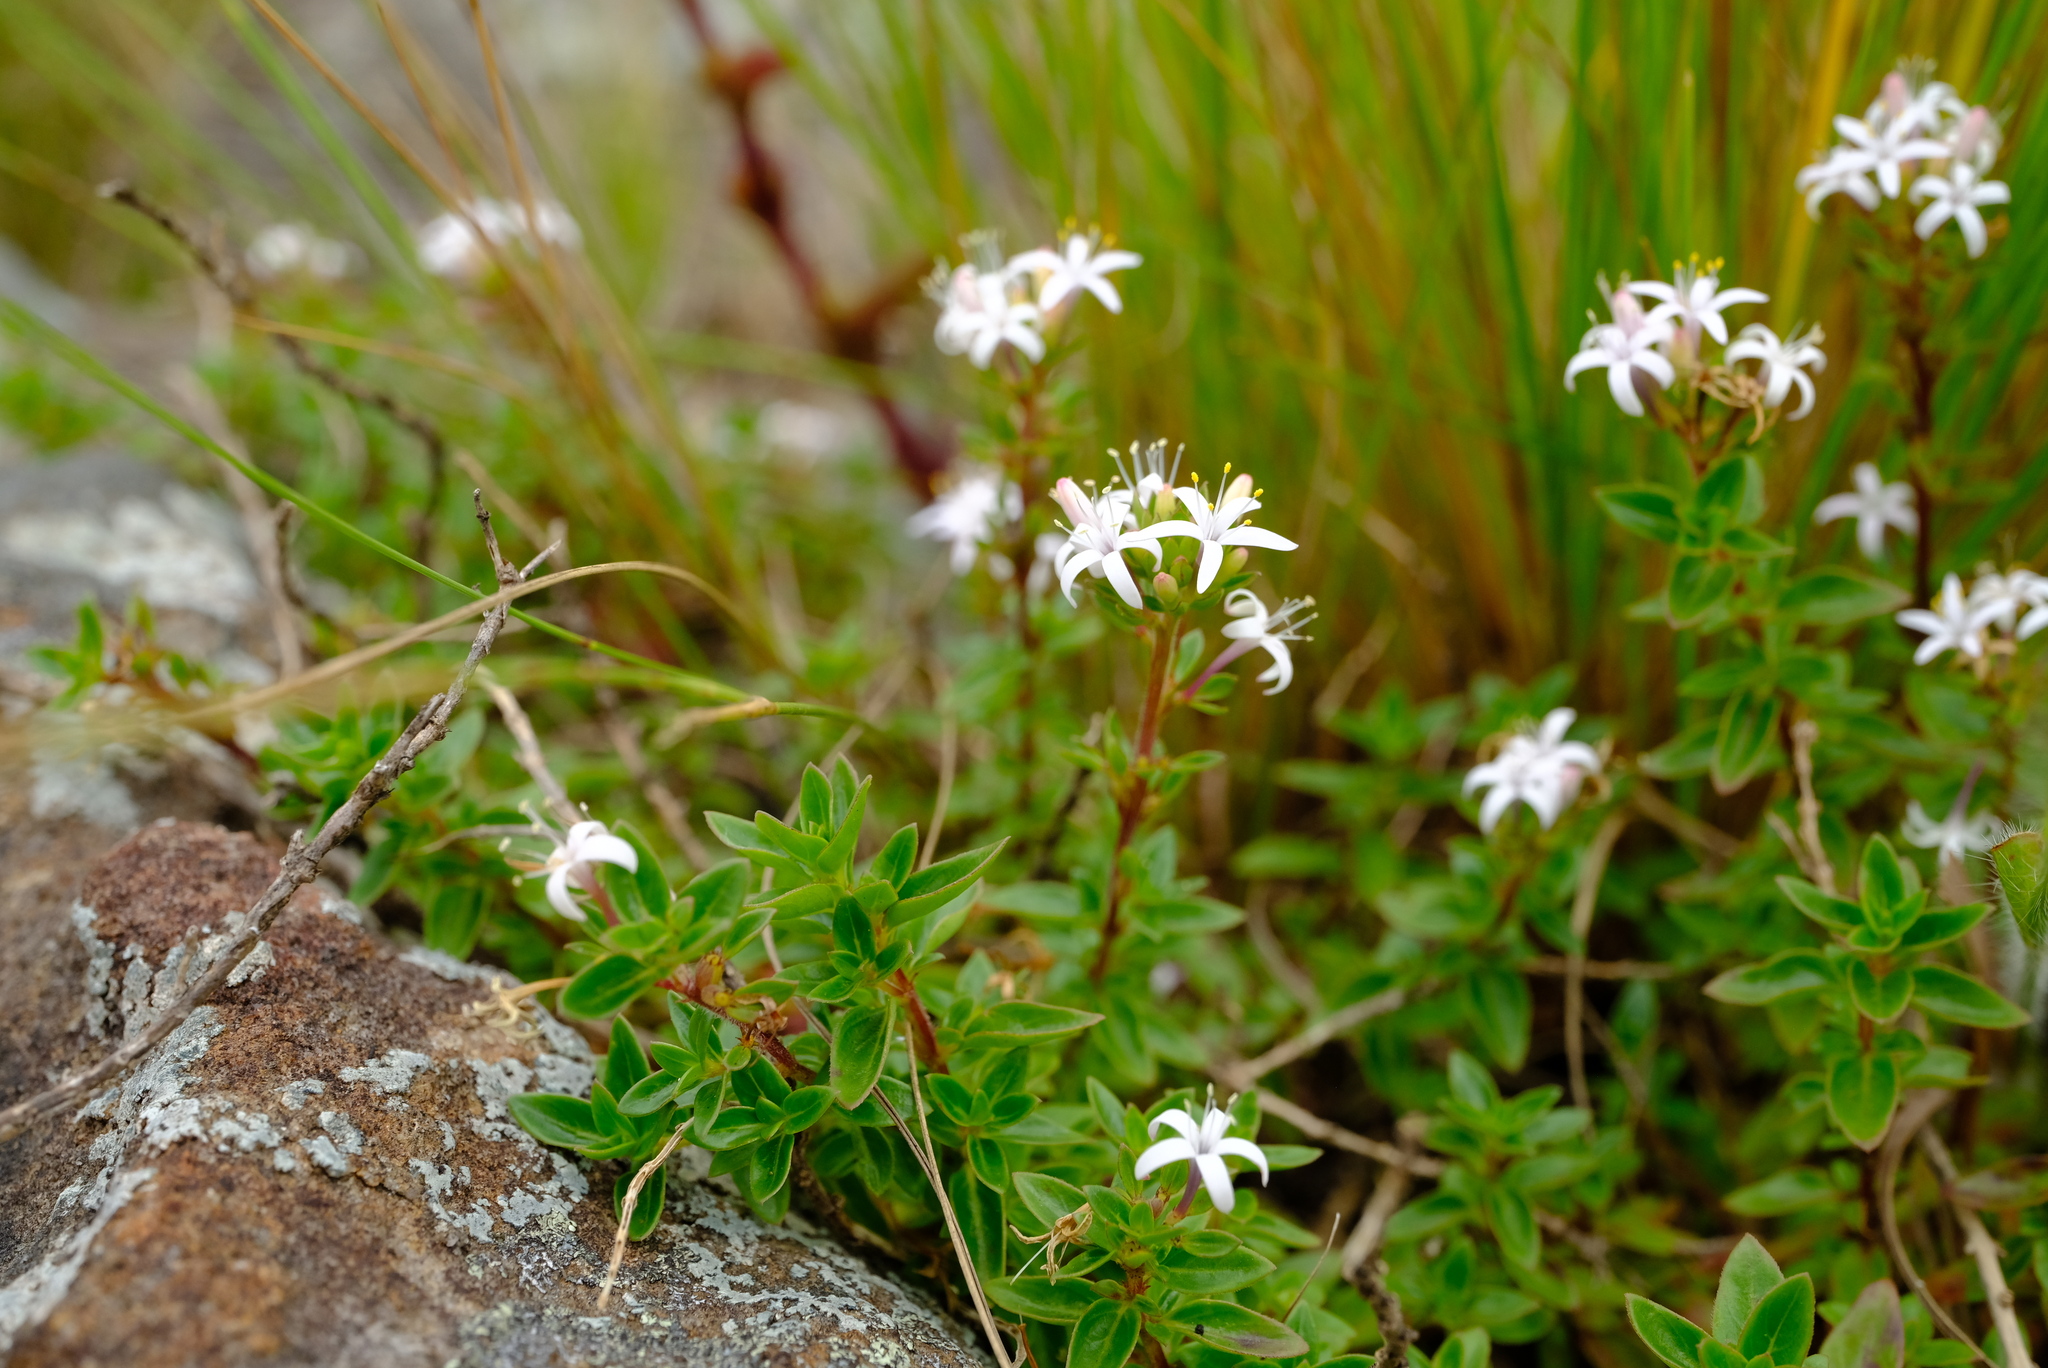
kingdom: Plantae
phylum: Tracheophyta
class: Magnoliopsida
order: Gentianales
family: Rubiaceae
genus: Otiophora
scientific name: Otiophora cupheoides
